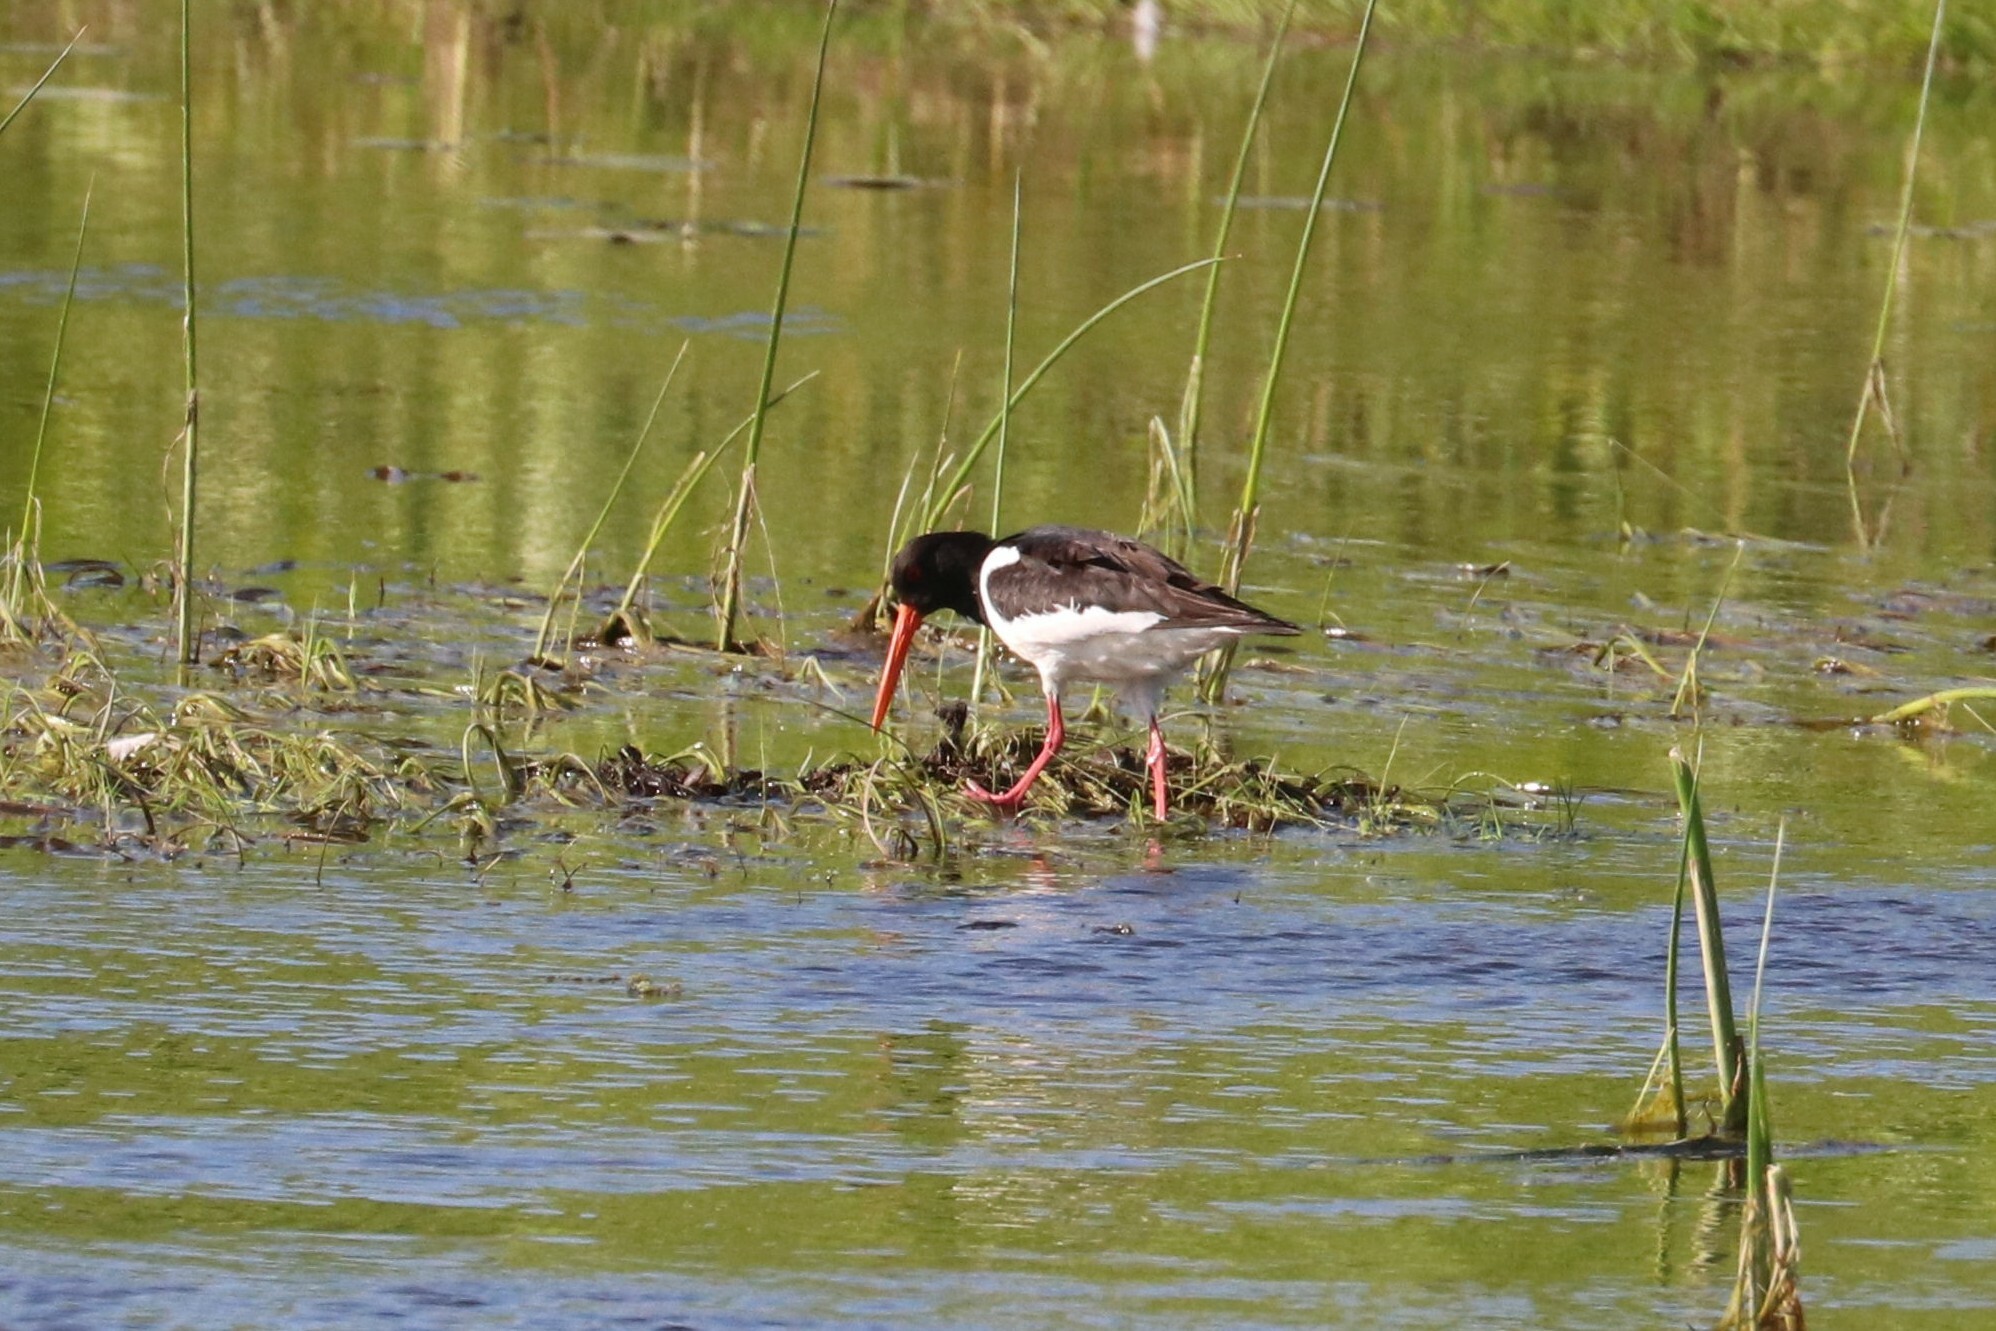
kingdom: Animalia
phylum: Chordata
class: Aves
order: Charadriiformes
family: Haematopodidae
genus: Haematopus
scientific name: Haematopus ostralegus
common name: Eurasian oystercatcher
